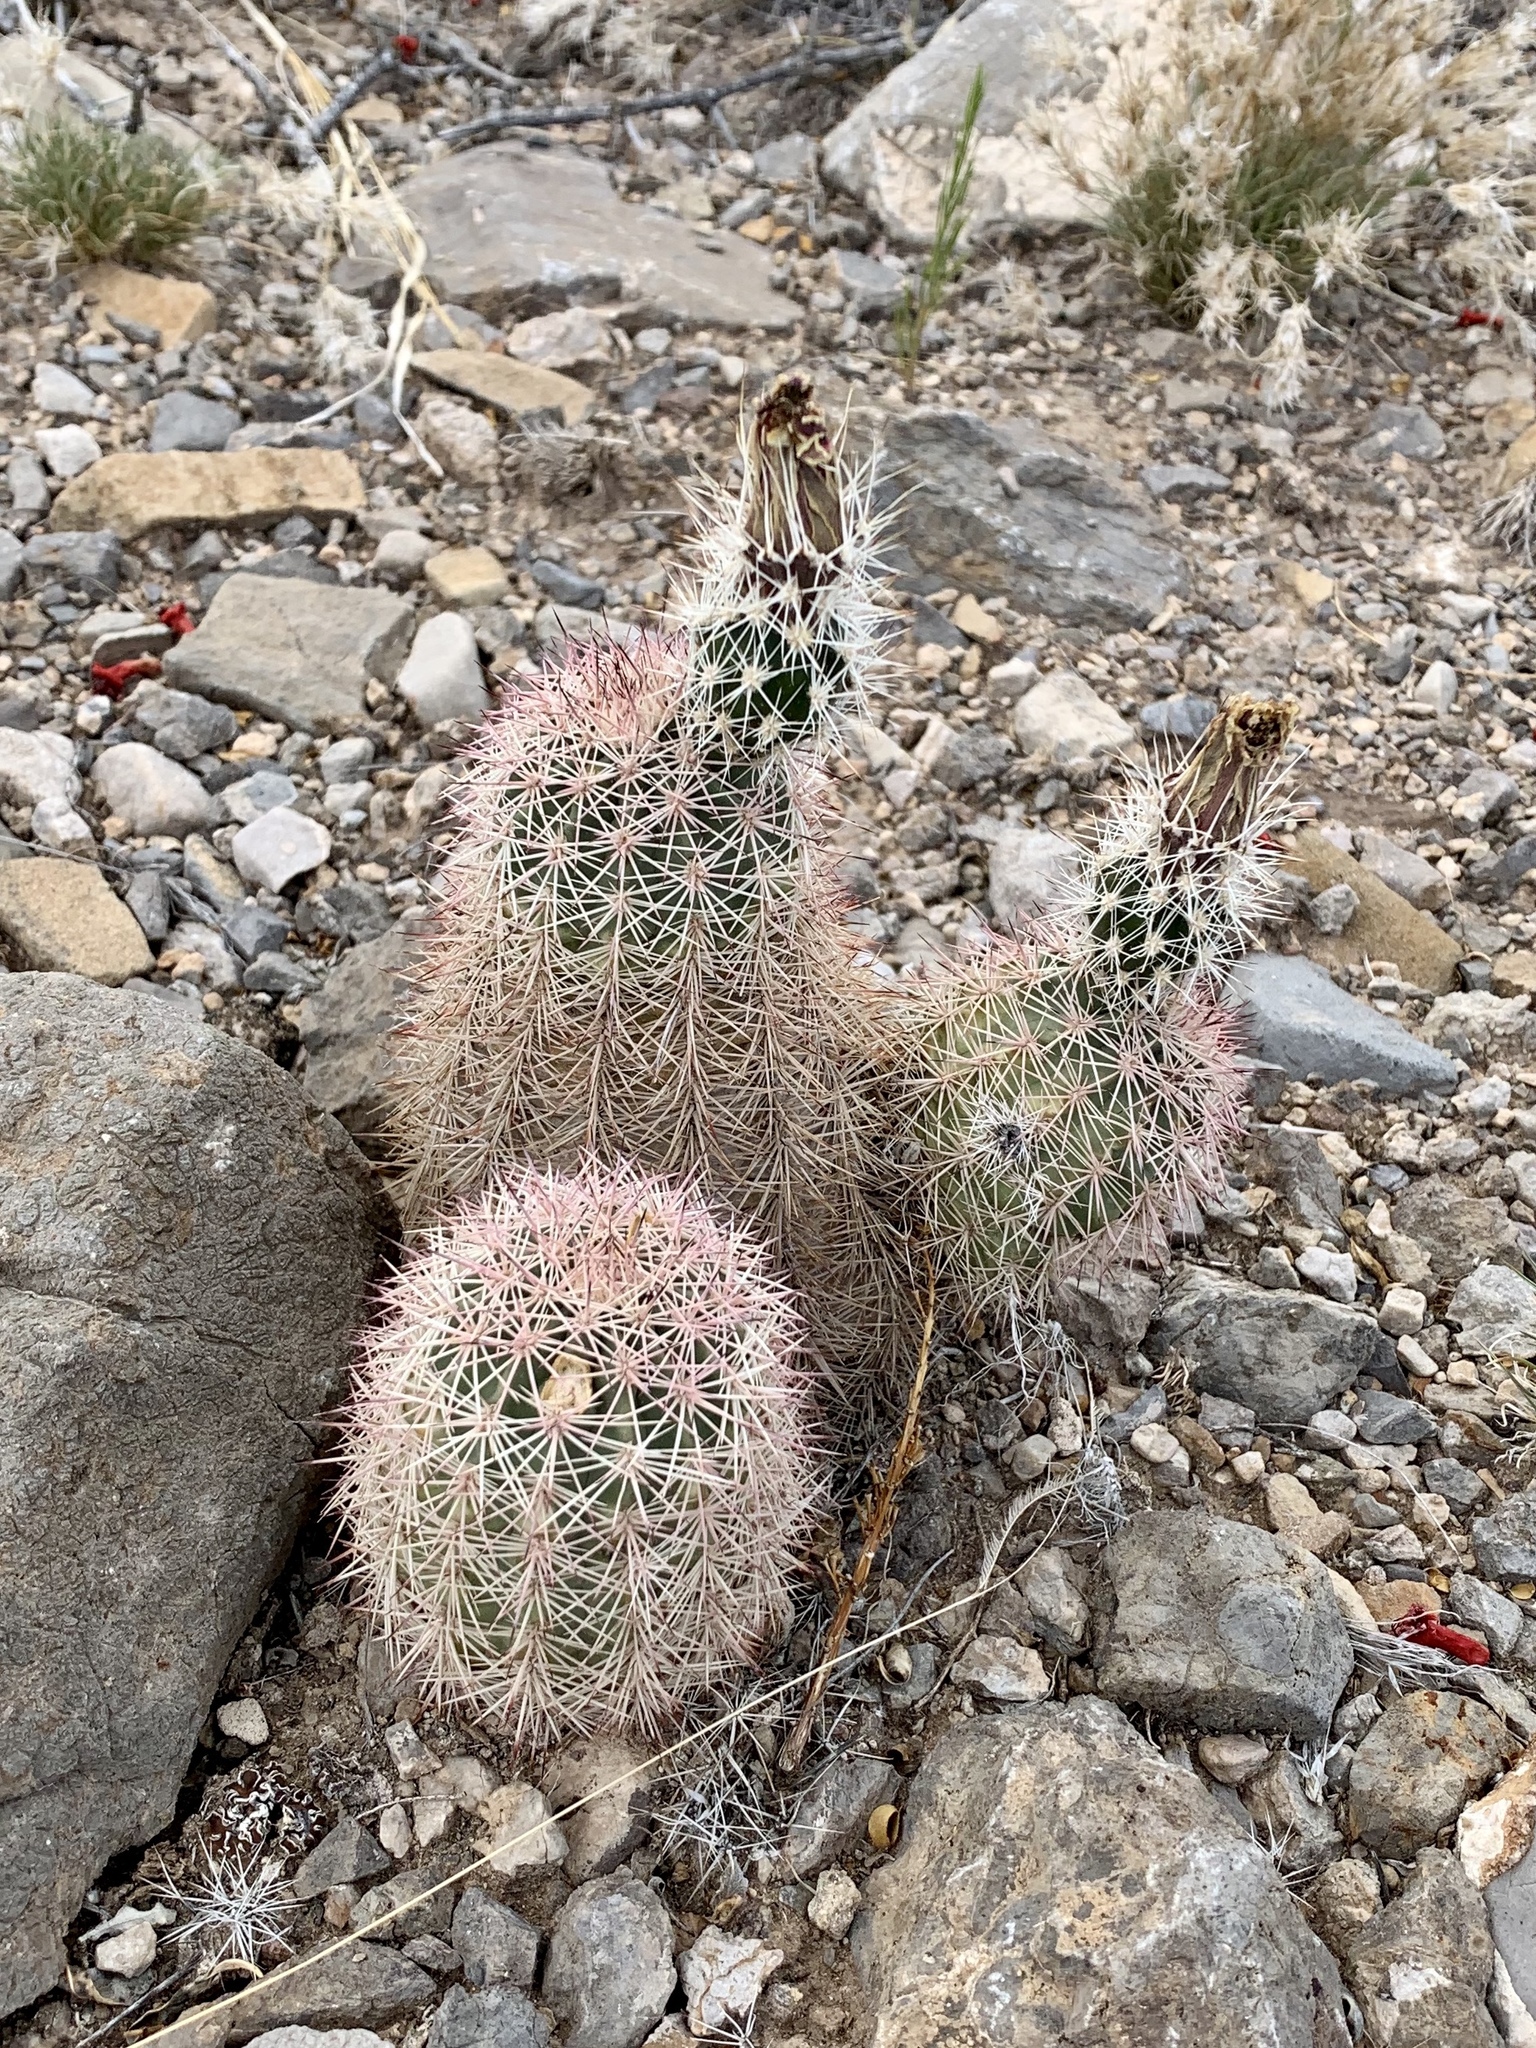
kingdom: Plantae
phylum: Tracheophyta
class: Magnoliopsida
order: Caryophyllales
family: Cactaceae
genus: Echinocereus
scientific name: Echinocereus dasyacanthus
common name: Spiny hedgehog cactus
